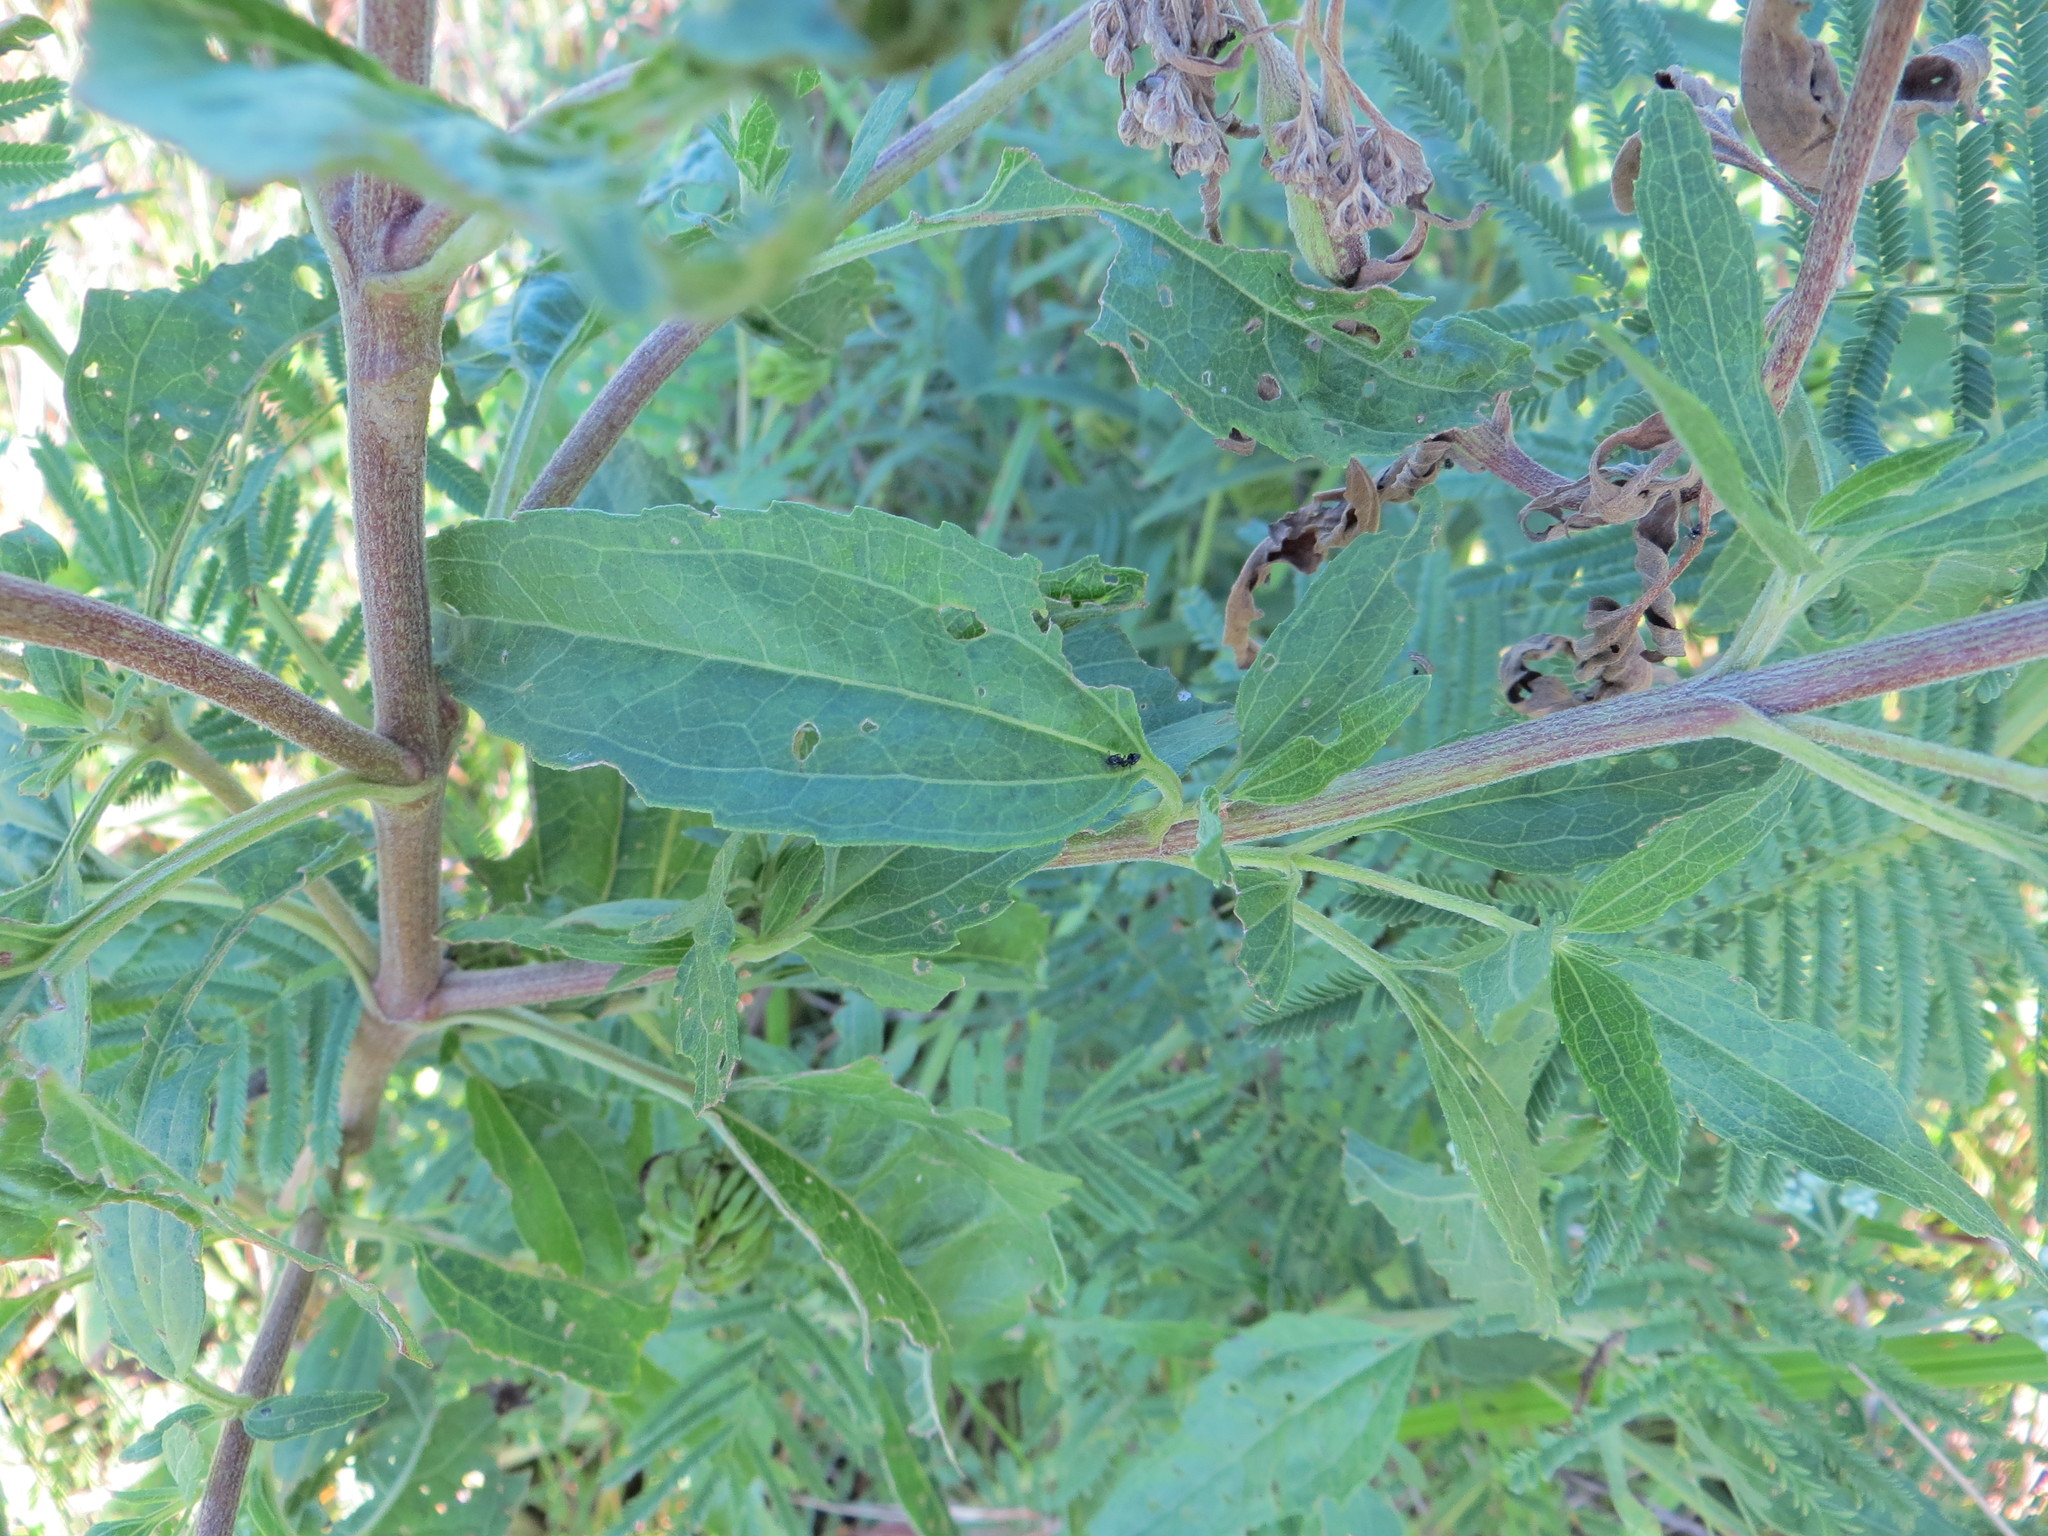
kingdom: Plantae
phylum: Tracheophyta
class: Magnoliopsida
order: Asterales
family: Asteraceae
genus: Eupatorium
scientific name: Eupatorium serotinum
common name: Late boneset
